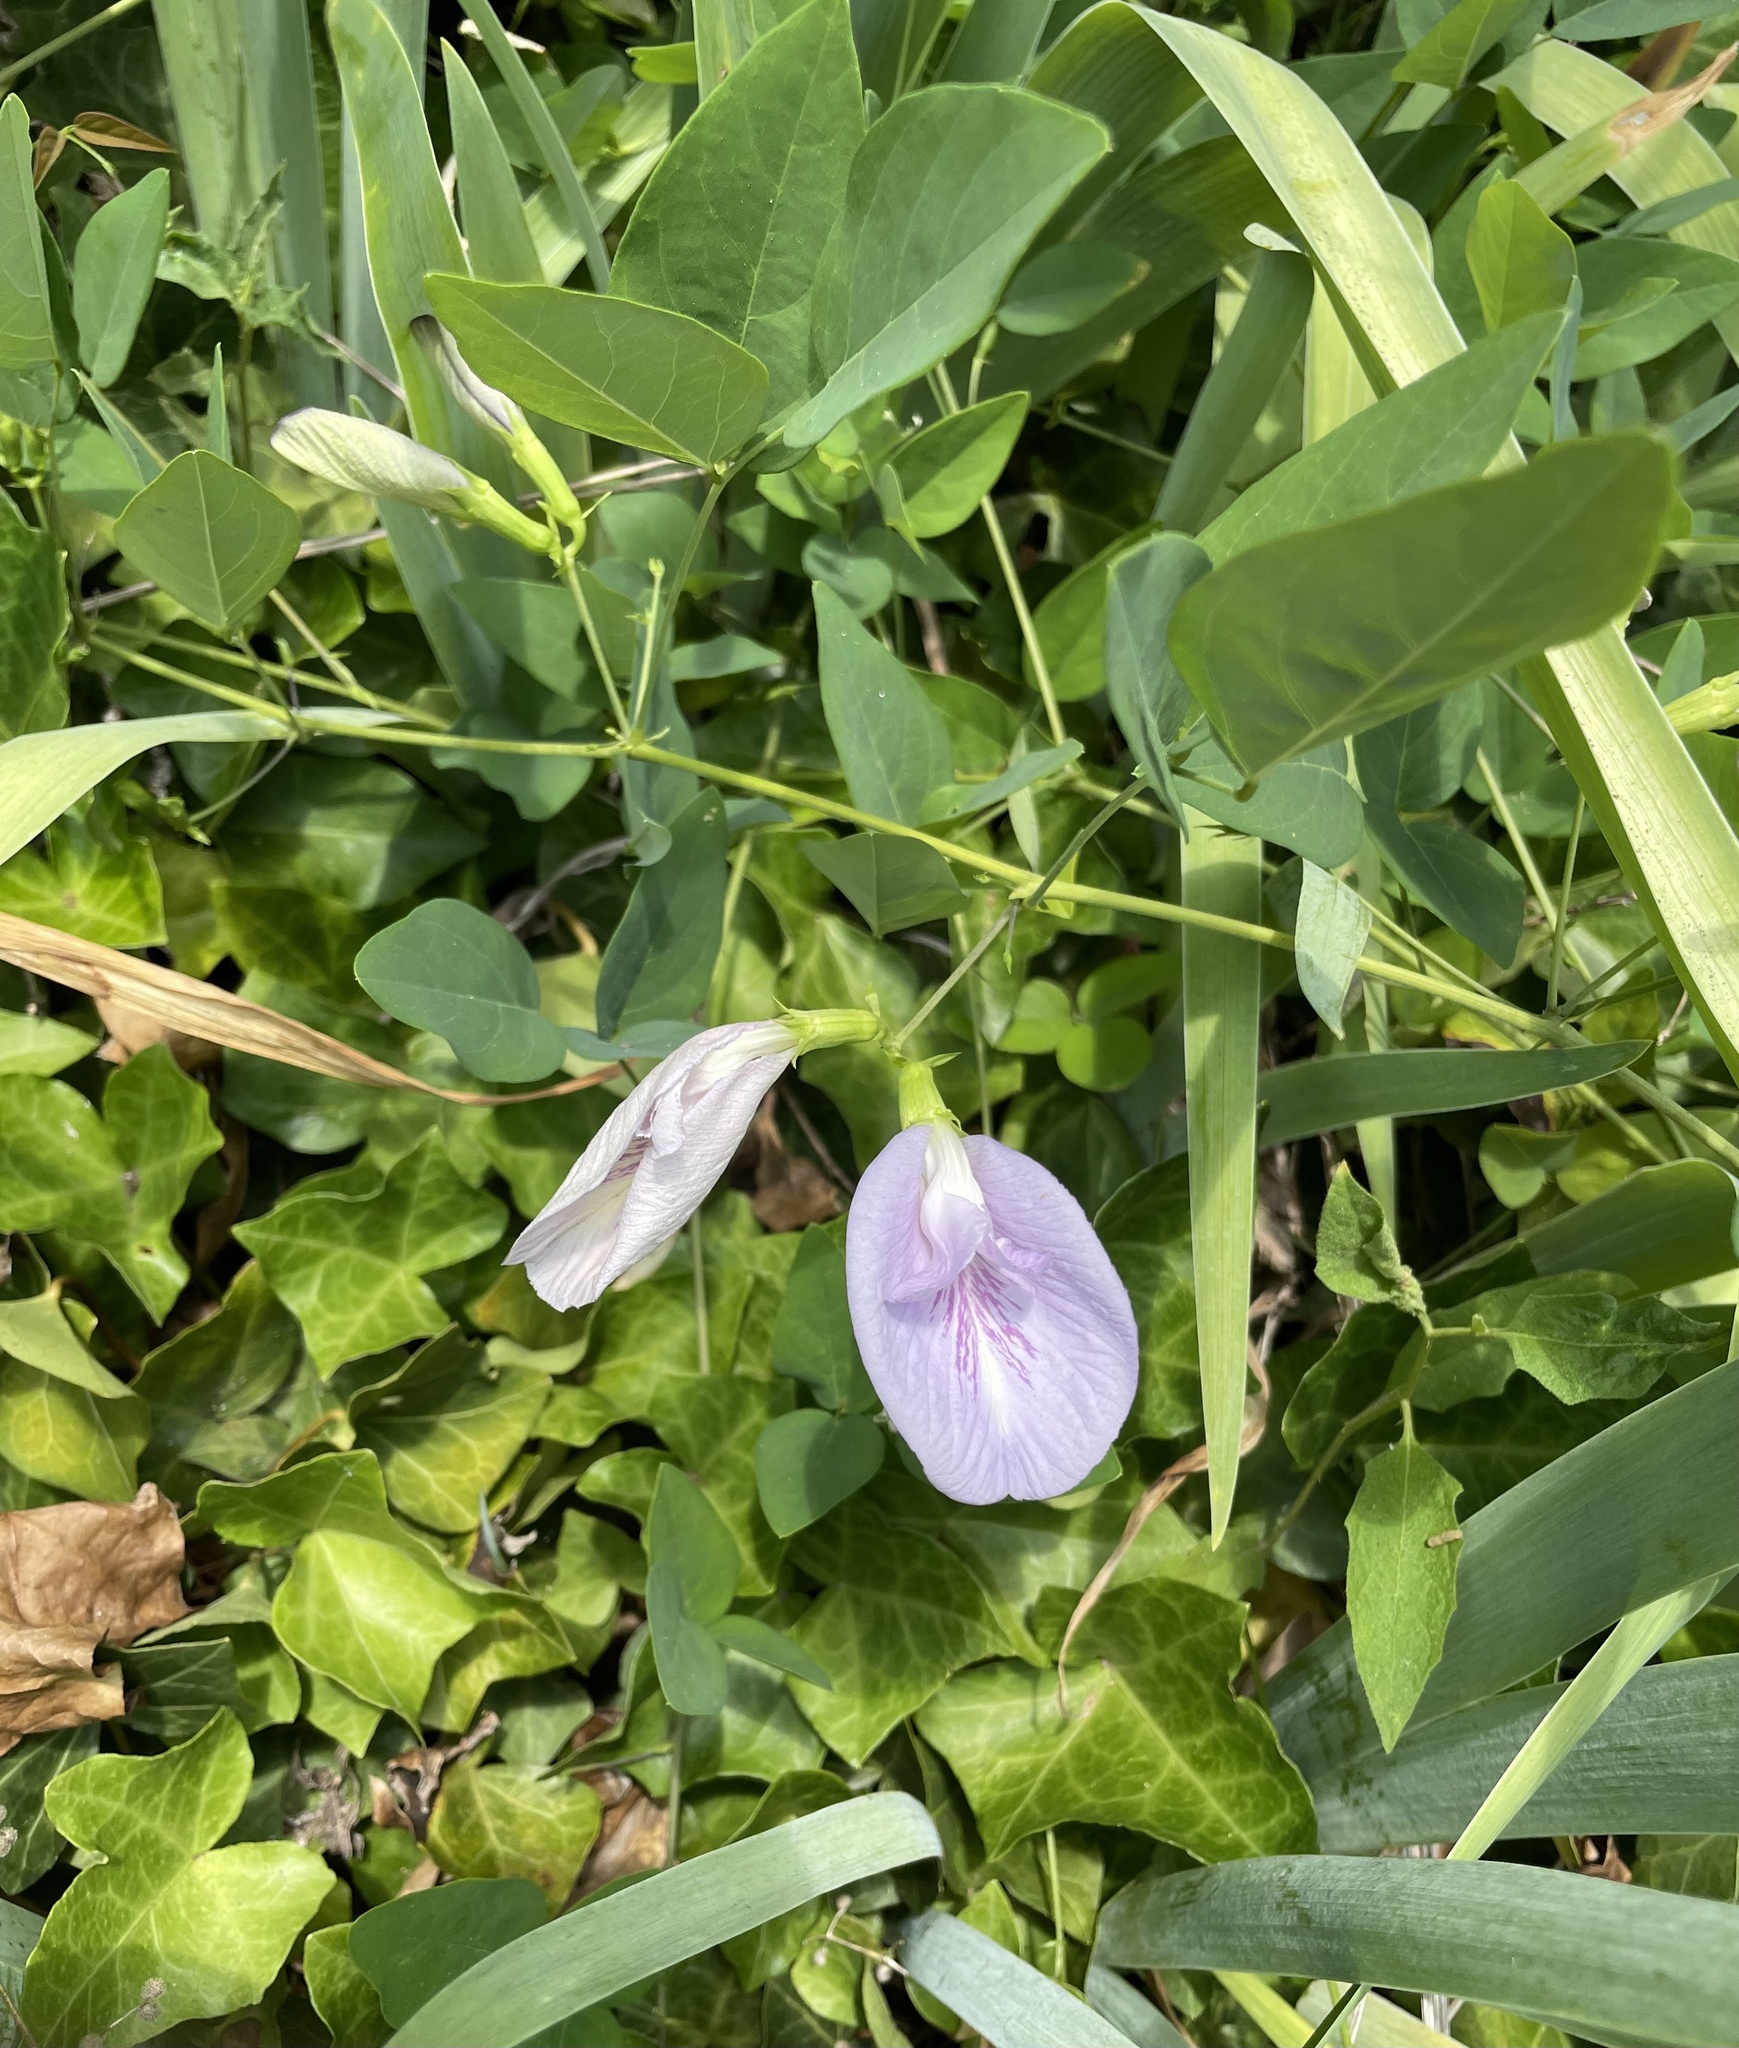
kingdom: Plantae
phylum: Tracheophyta
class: Magnoliopsida
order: Fabales
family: Fabaceae
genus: Clitoria
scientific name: Clitoria mariana
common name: Butterfly-pea
